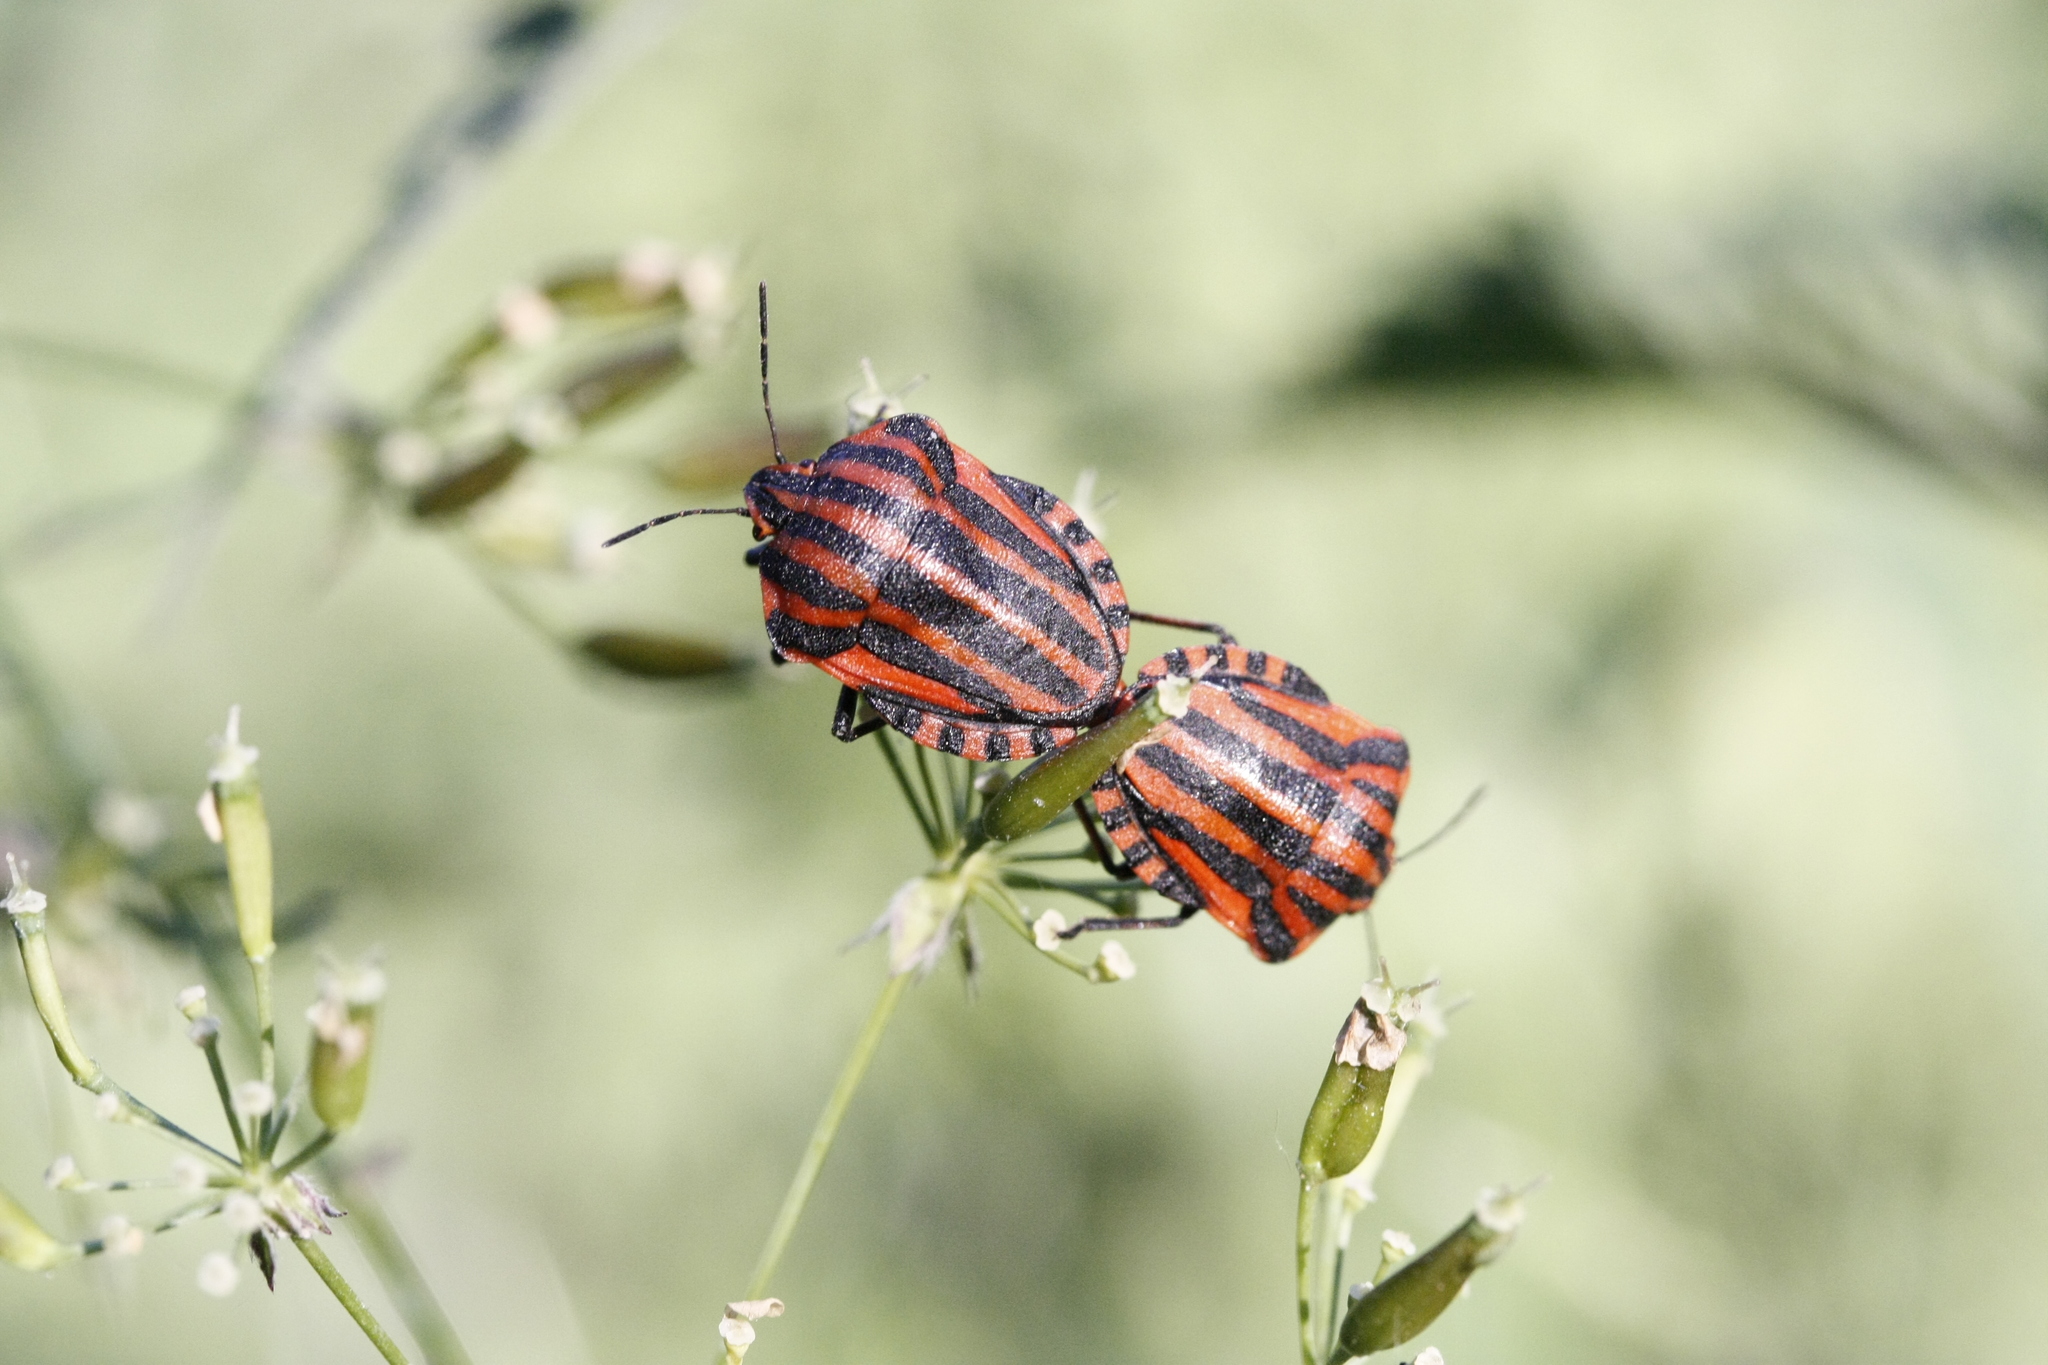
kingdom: Animalia
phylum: Arthropoda
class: Insecta
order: Hemiptera
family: Pentatomidae
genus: Graphosoma
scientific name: Graphosoma italicum
